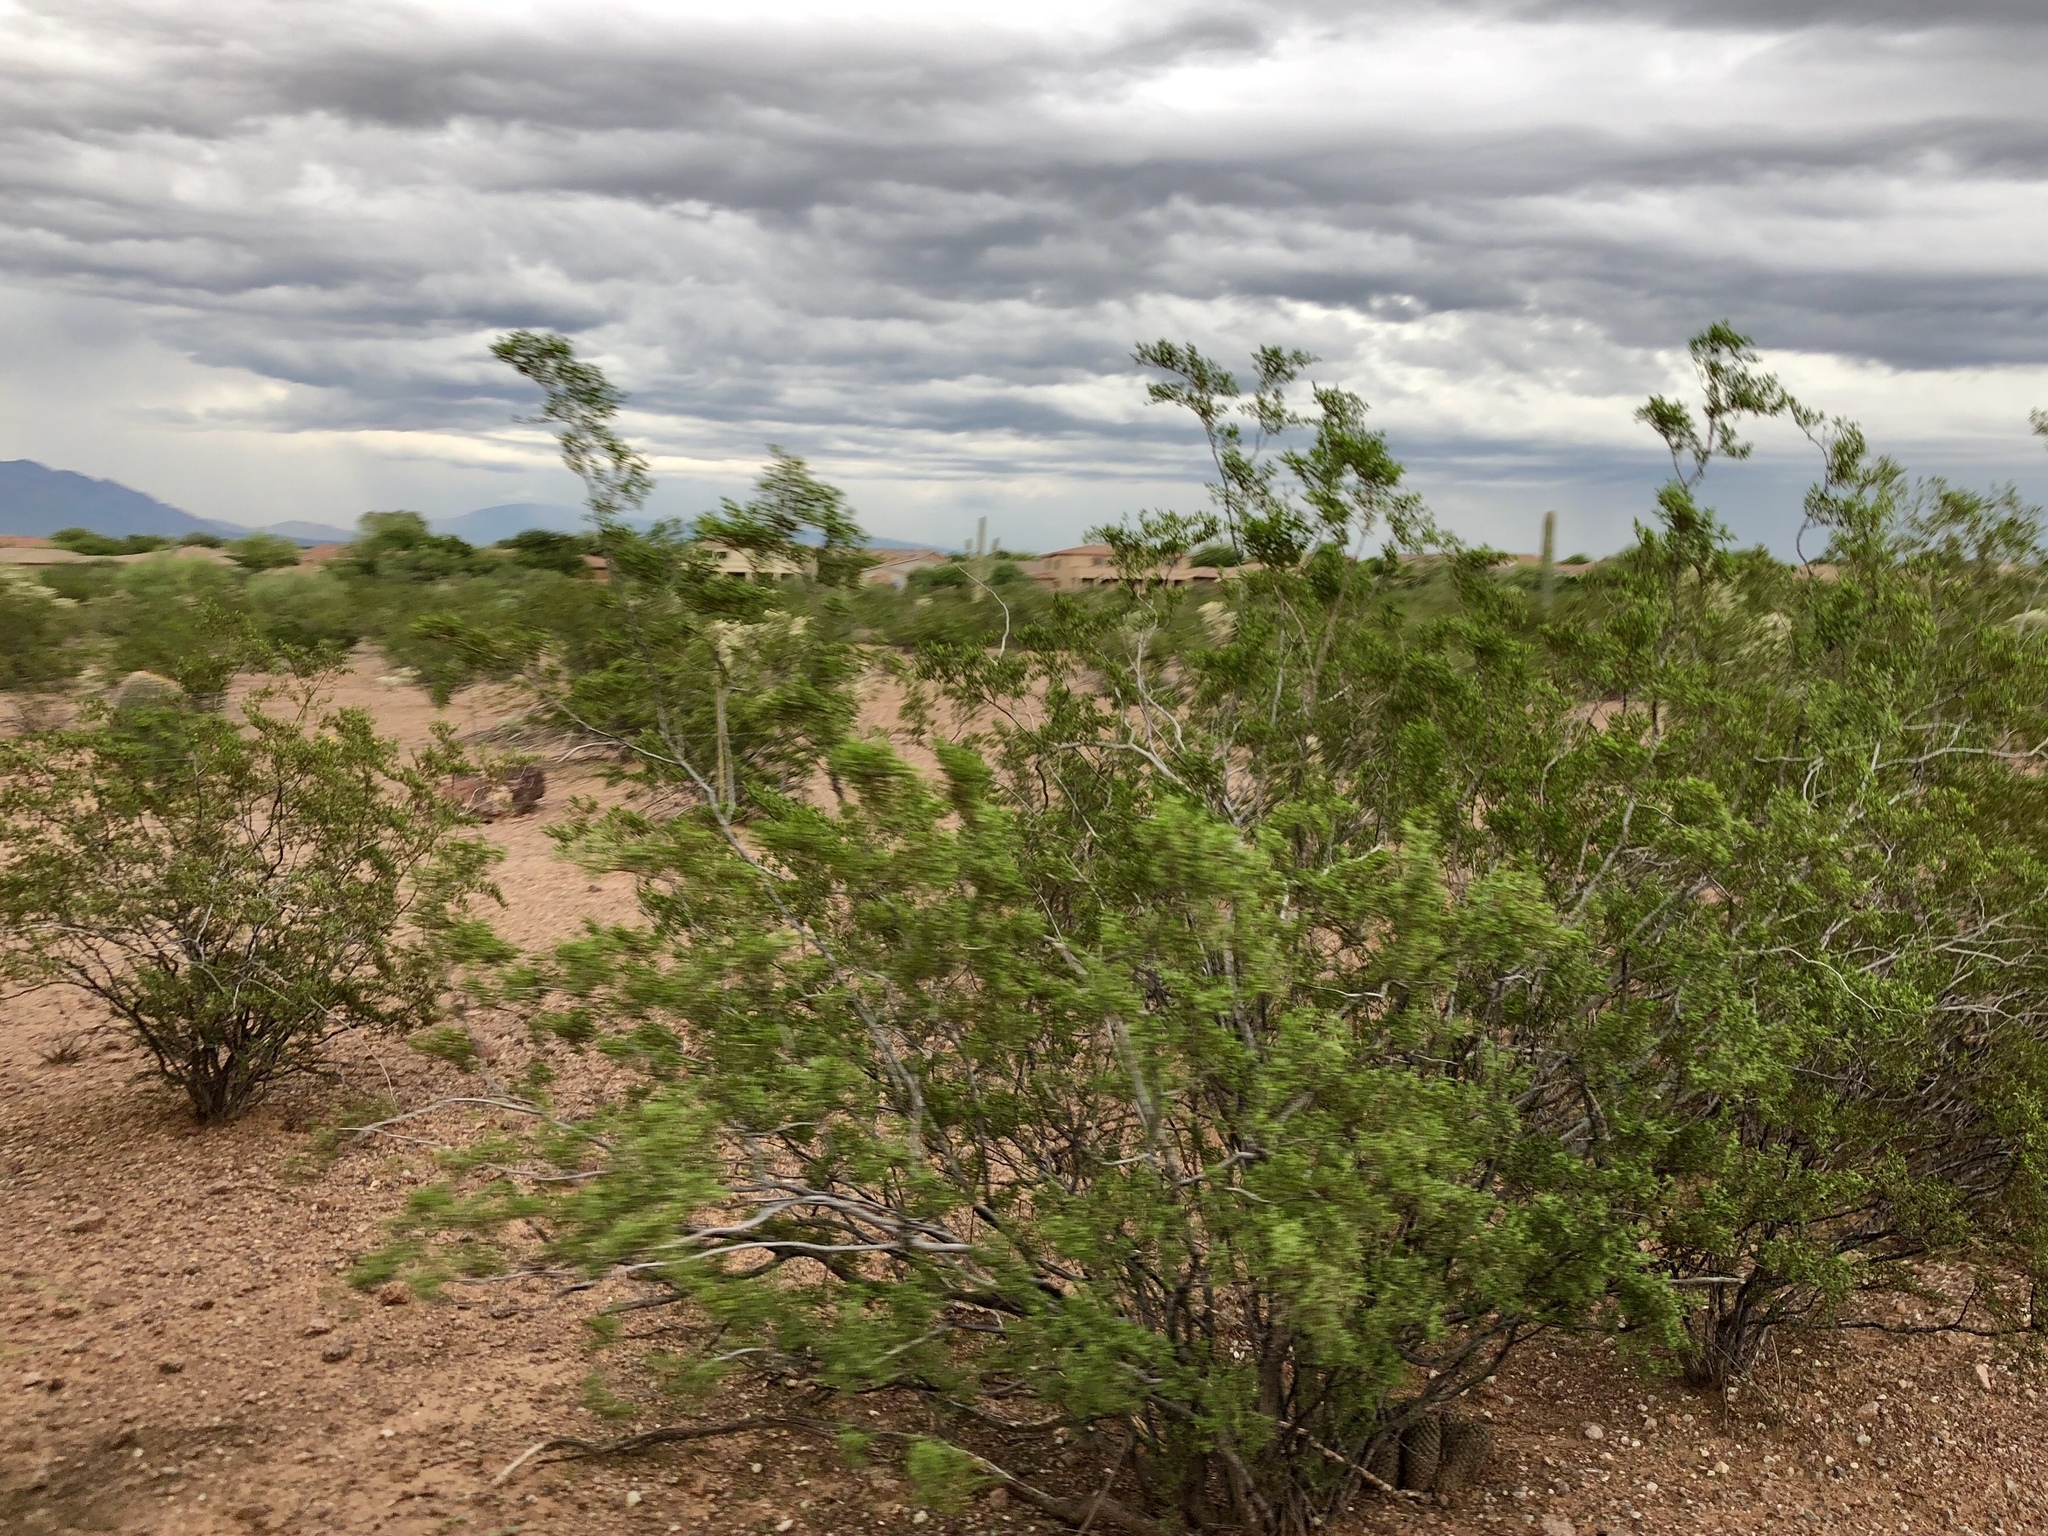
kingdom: Plantae
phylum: Tracheophyta
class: Magnoliopsida
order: Zygophyllales
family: Zygophyllaceae
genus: Larrea
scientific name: Larrea tridentata
